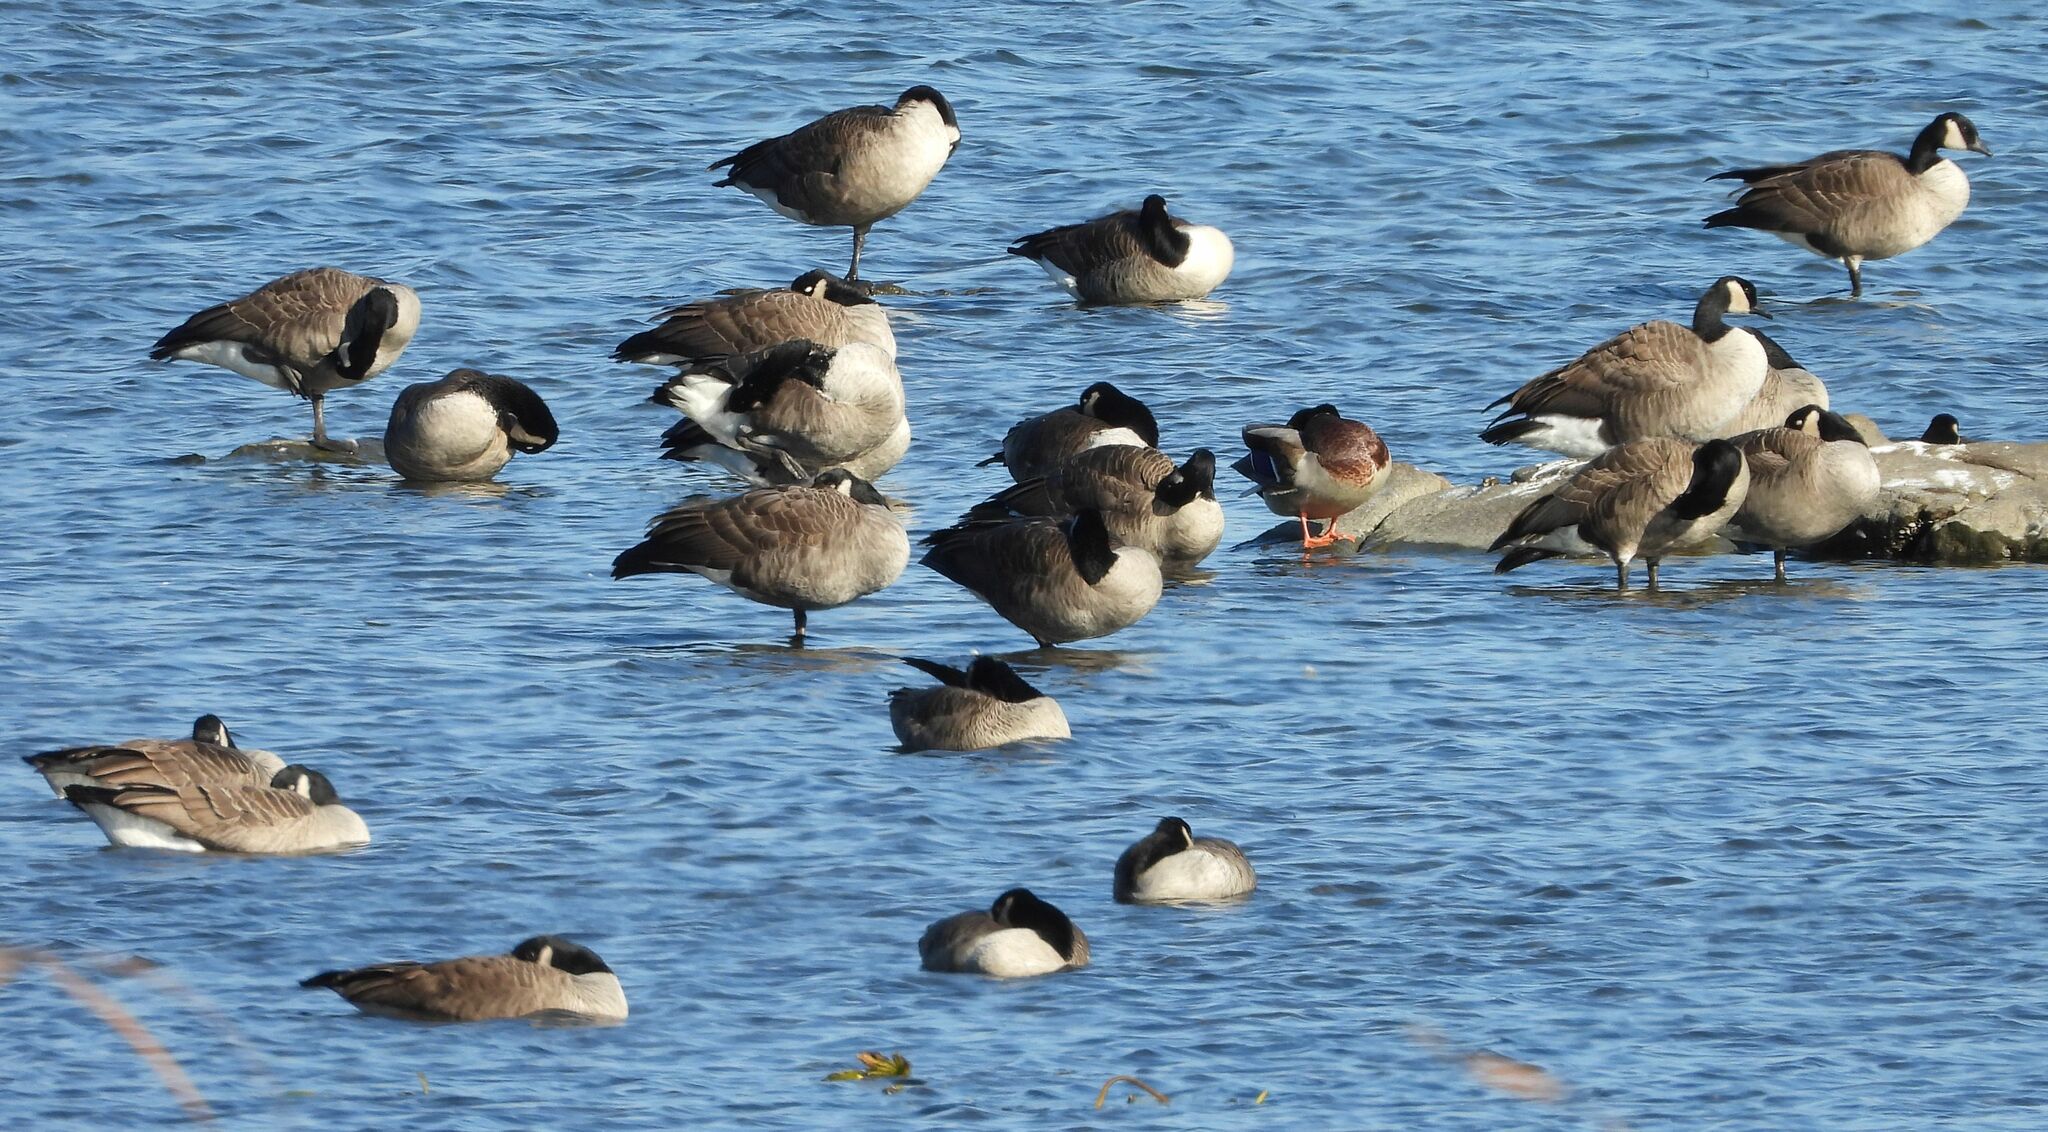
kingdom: Animalia
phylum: Chordata
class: Aves
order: Anseriformes
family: Anatidae
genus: Branta
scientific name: Branta canadensis
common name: Canada goose
